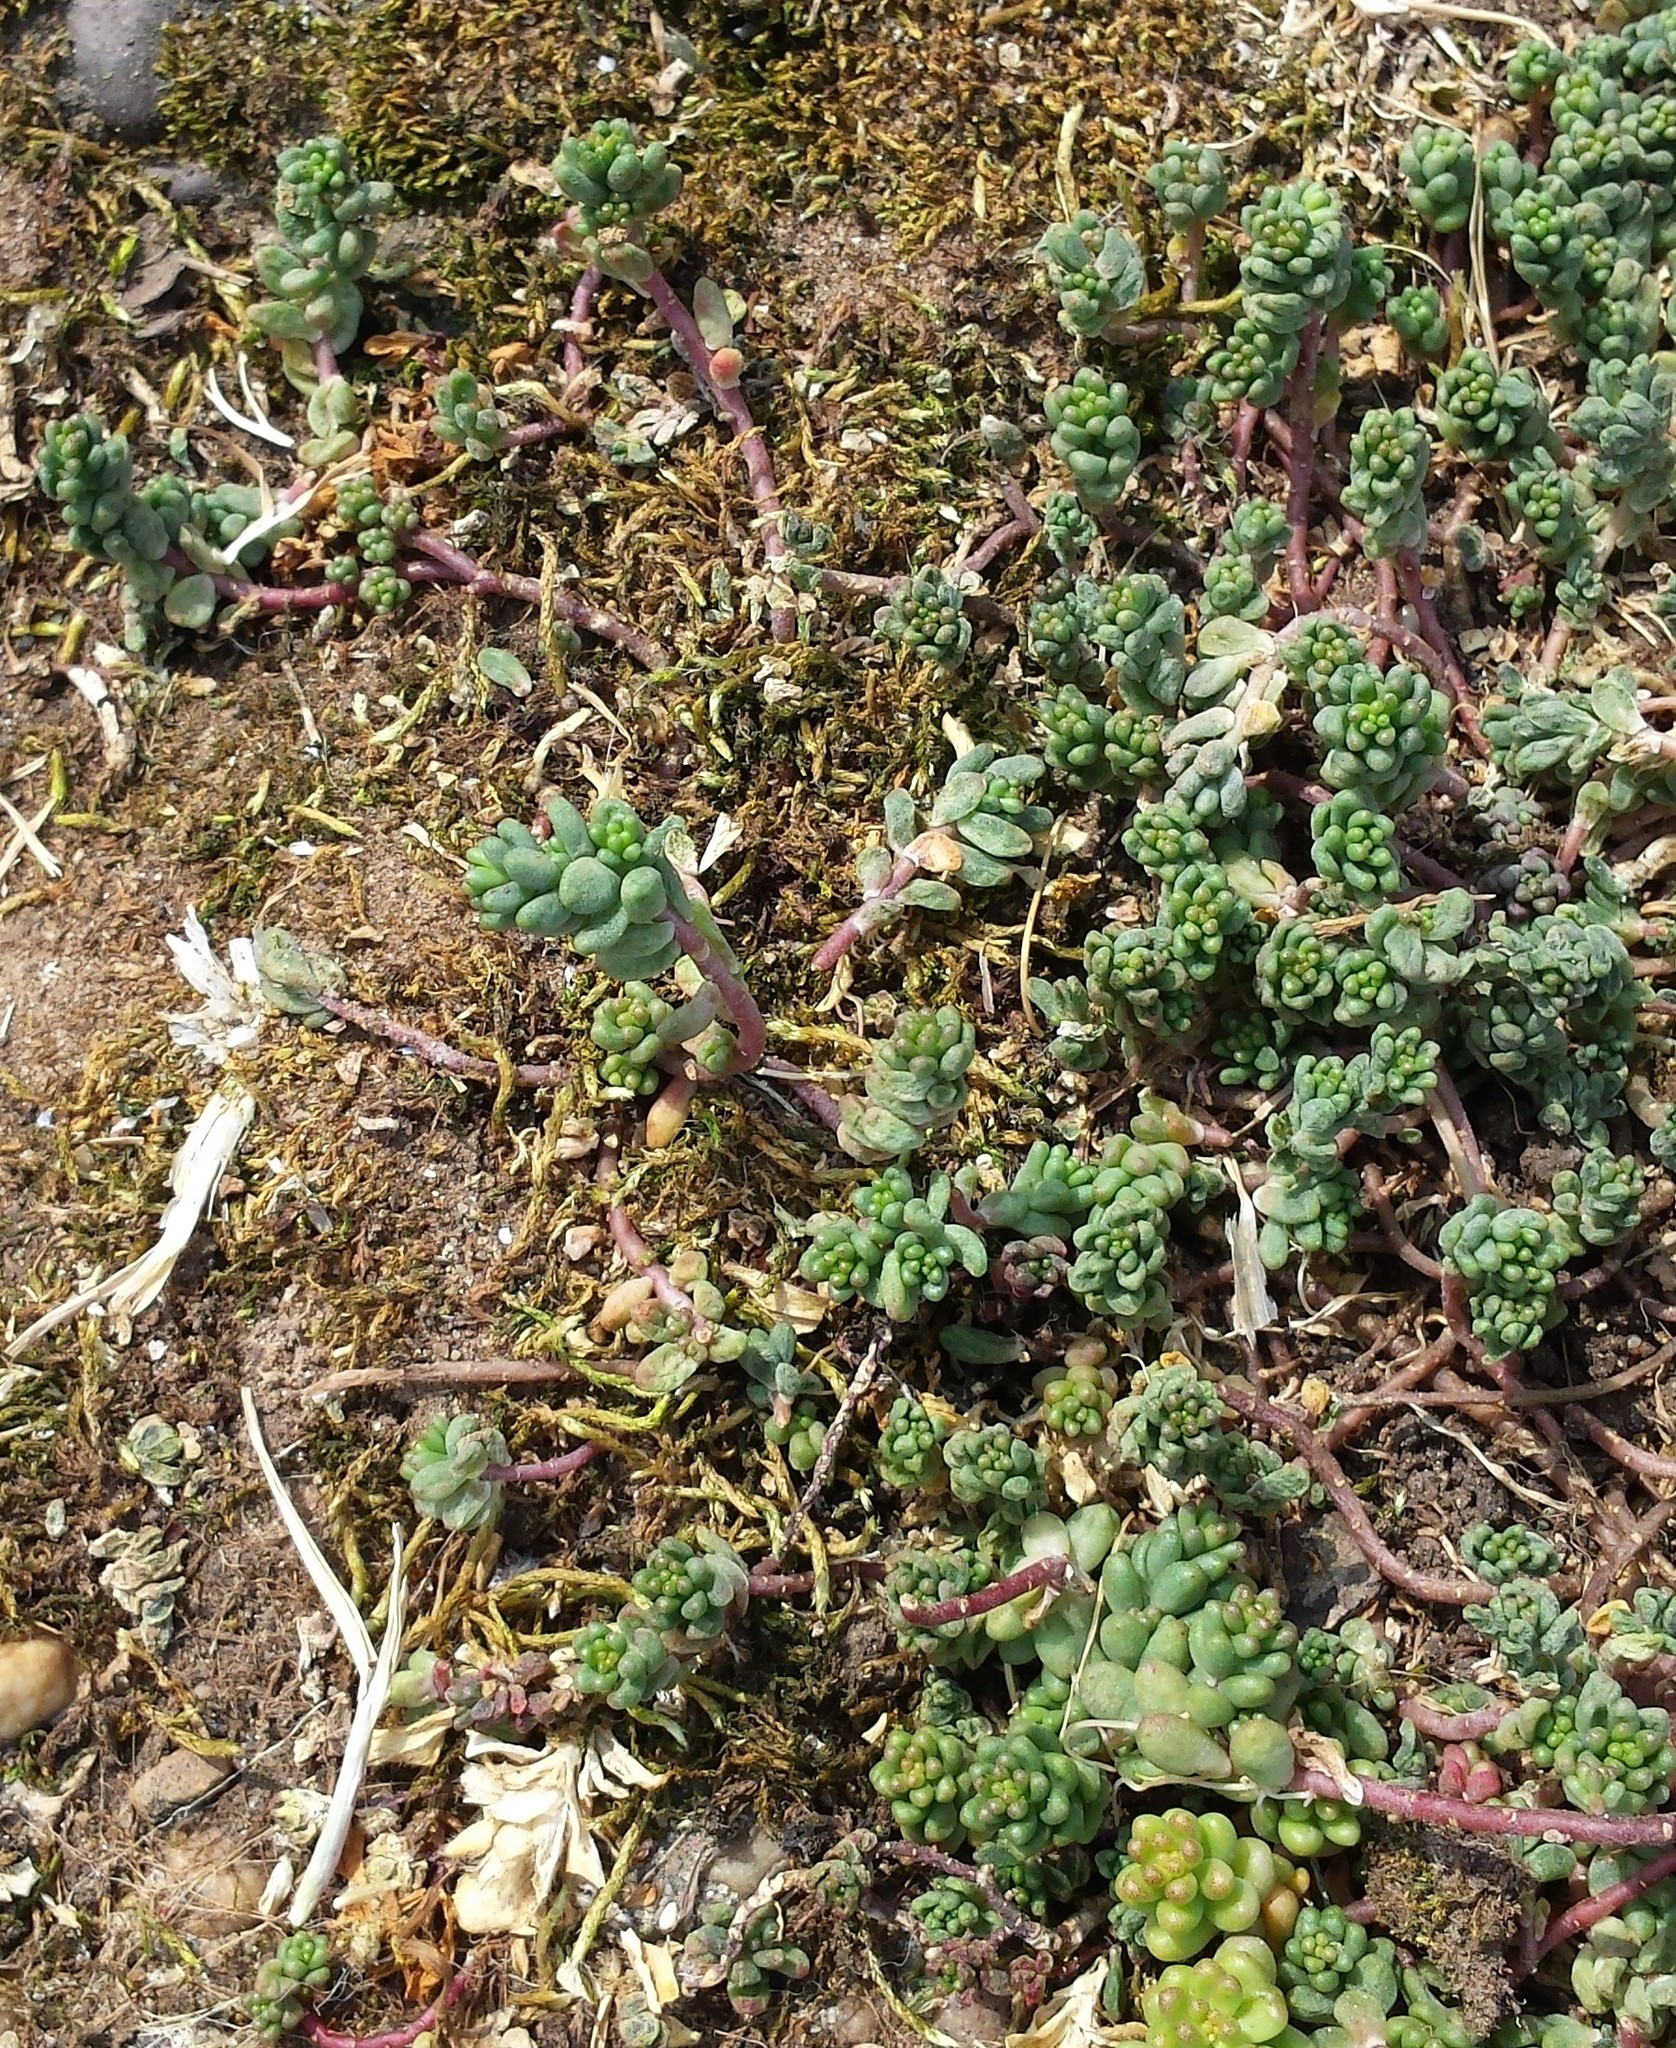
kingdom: Plantae
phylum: Tracheophyta
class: Magnoliopsida
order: Saxifragales
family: Crassulaceae
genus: Sedum
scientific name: Sedum album
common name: White stonecrop
